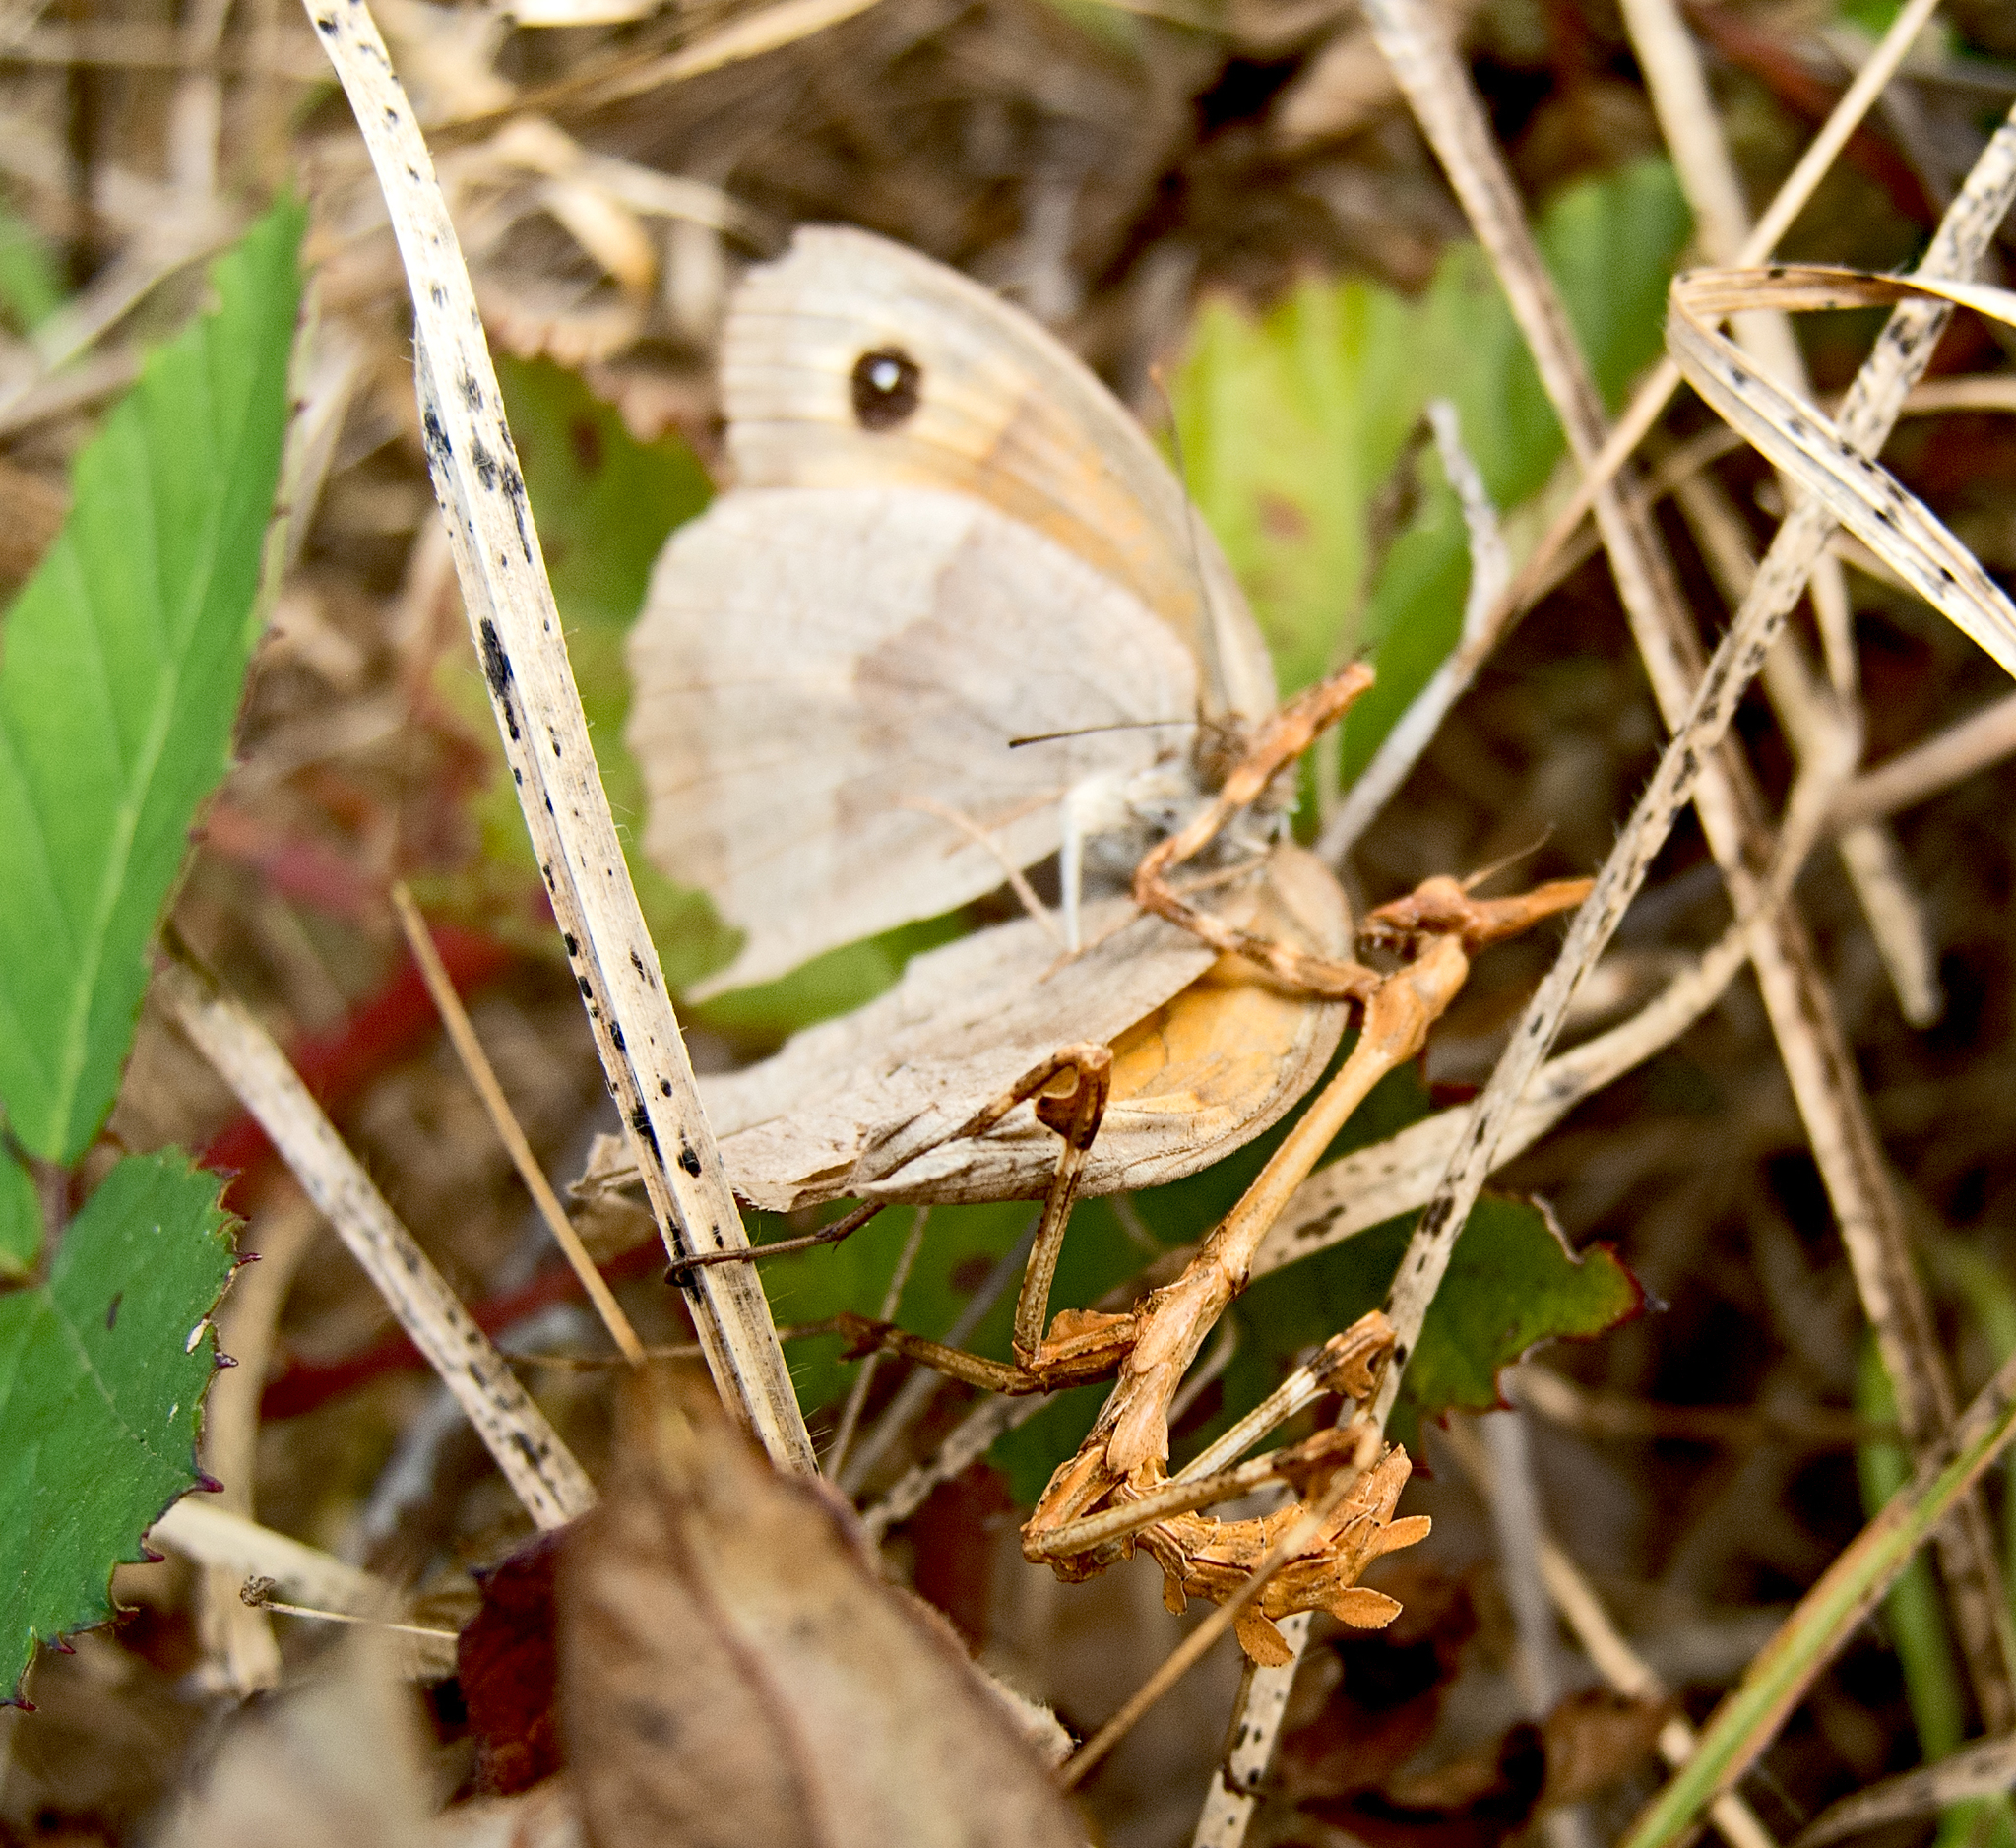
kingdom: Animalia
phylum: Arthropoda
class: Insecta
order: Mantodea
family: Empusidae
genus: Empusa
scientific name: Empusa fasciata
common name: Devil's mare
